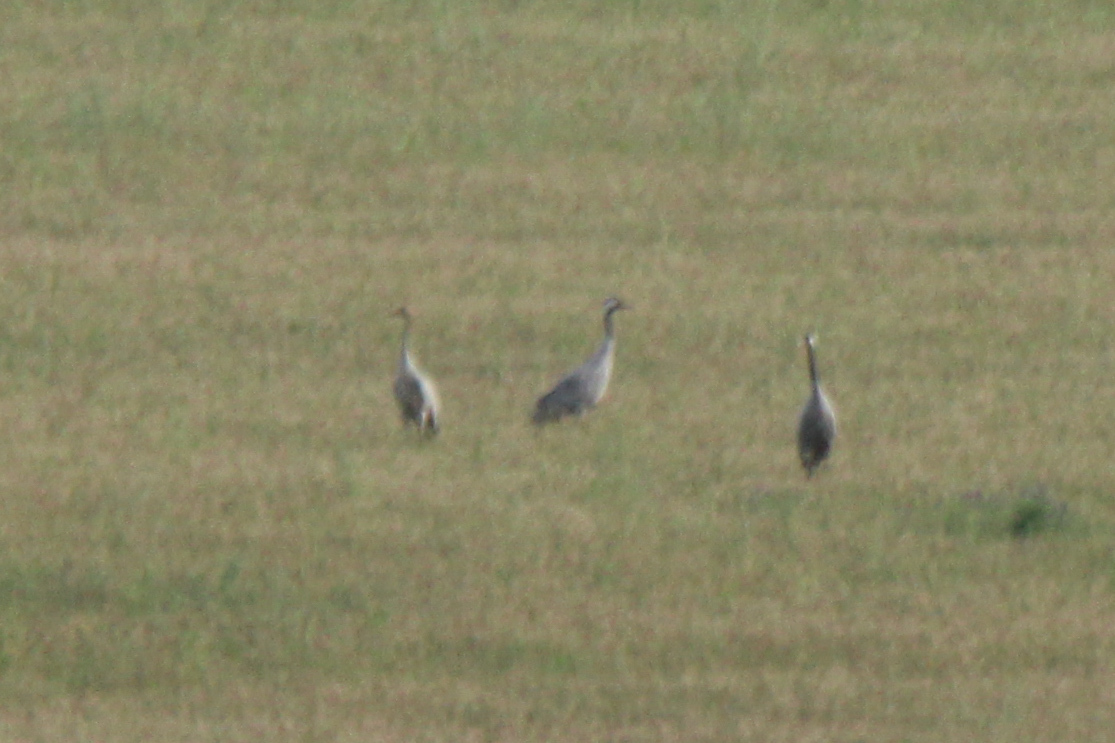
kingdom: Animalia
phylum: Chordata
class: Aves
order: Gruiformes
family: Gruidae
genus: Grus
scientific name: Grus grus
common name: Common crane
